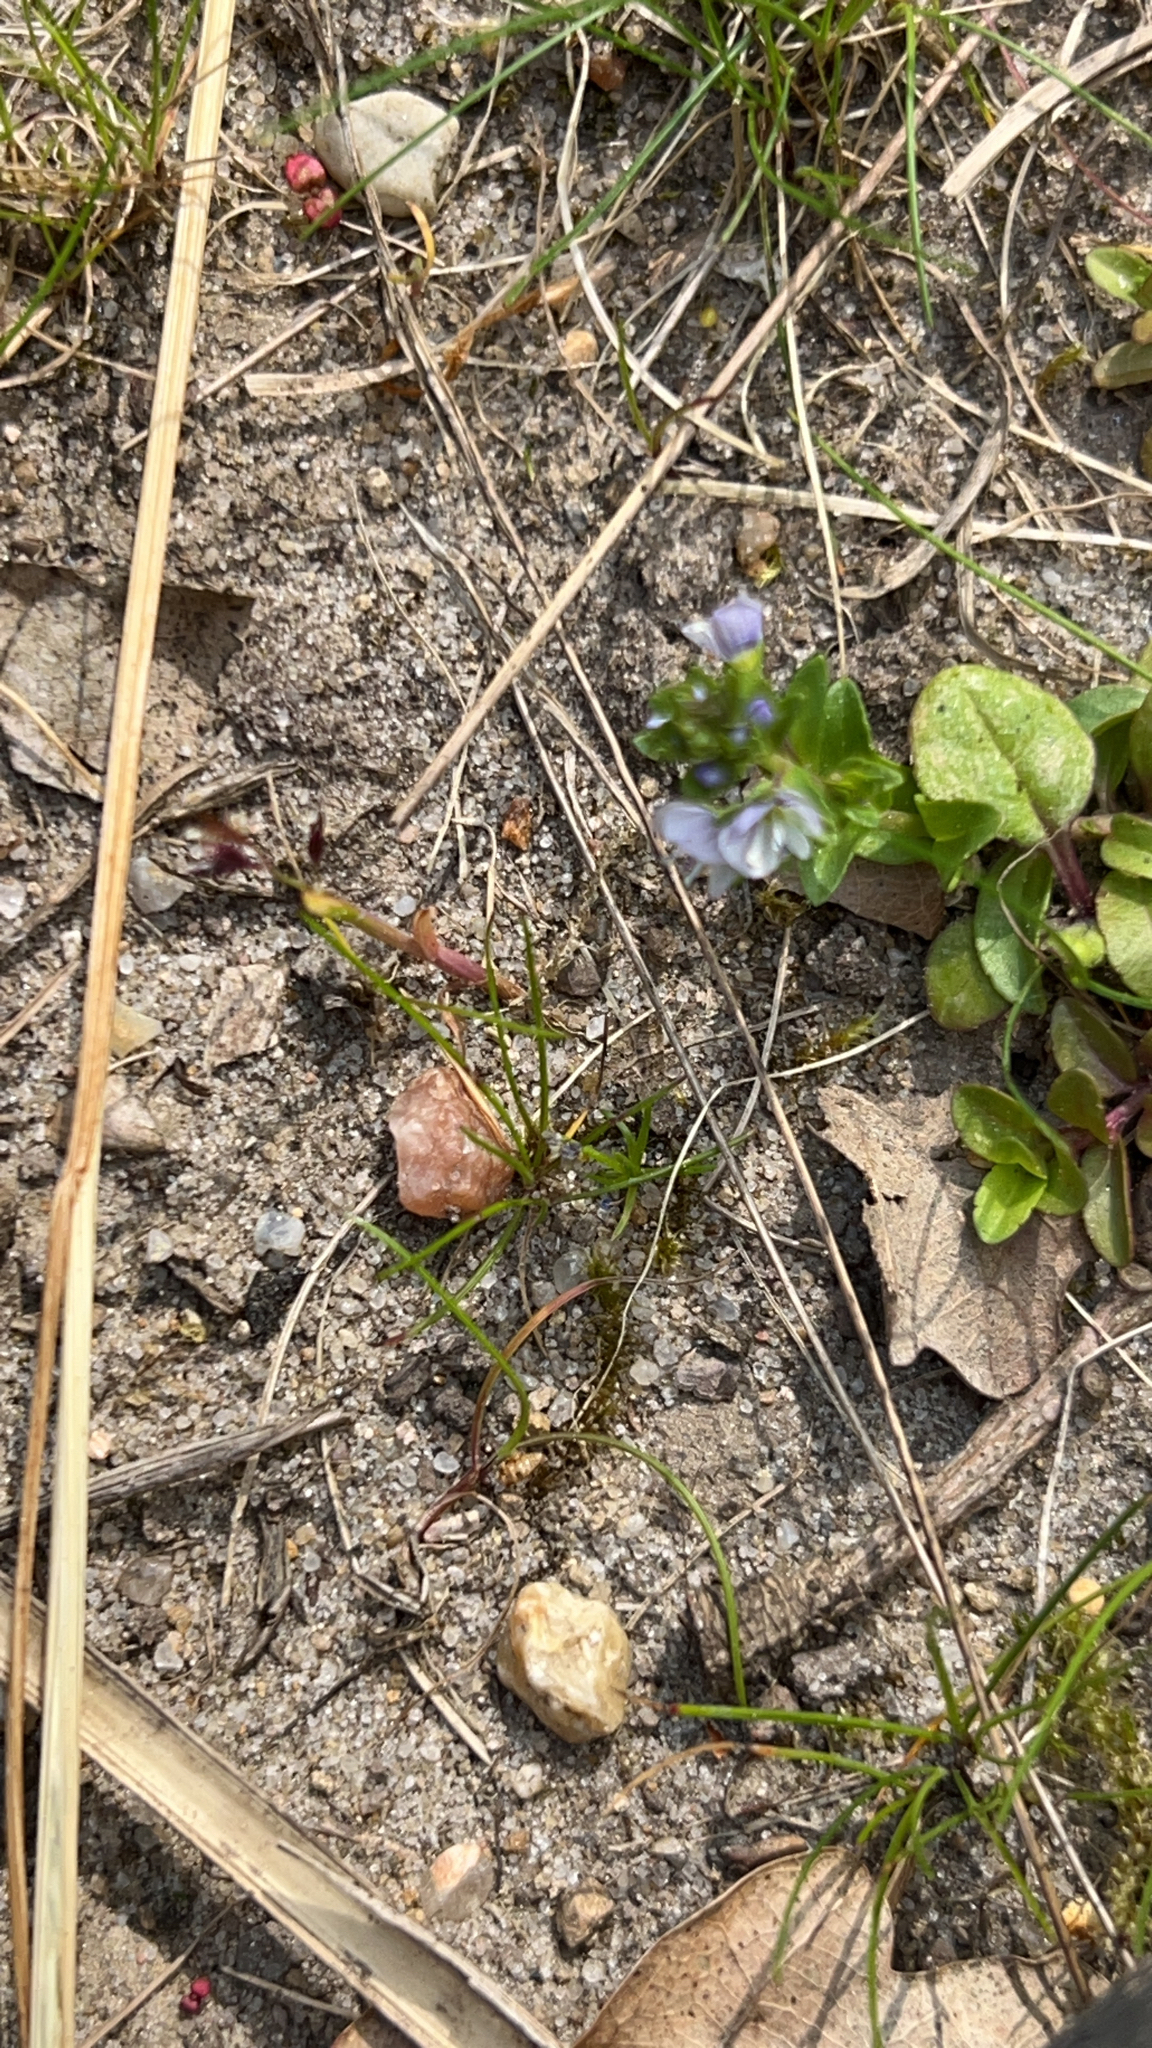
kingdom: Plantae
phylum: Tracheophyta
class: Magnoliopsida
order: Lamiales
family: Plantaginaceae
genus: Veronica
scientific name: Veronica serpyllifolia
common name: Thyme-leaved speedwell
